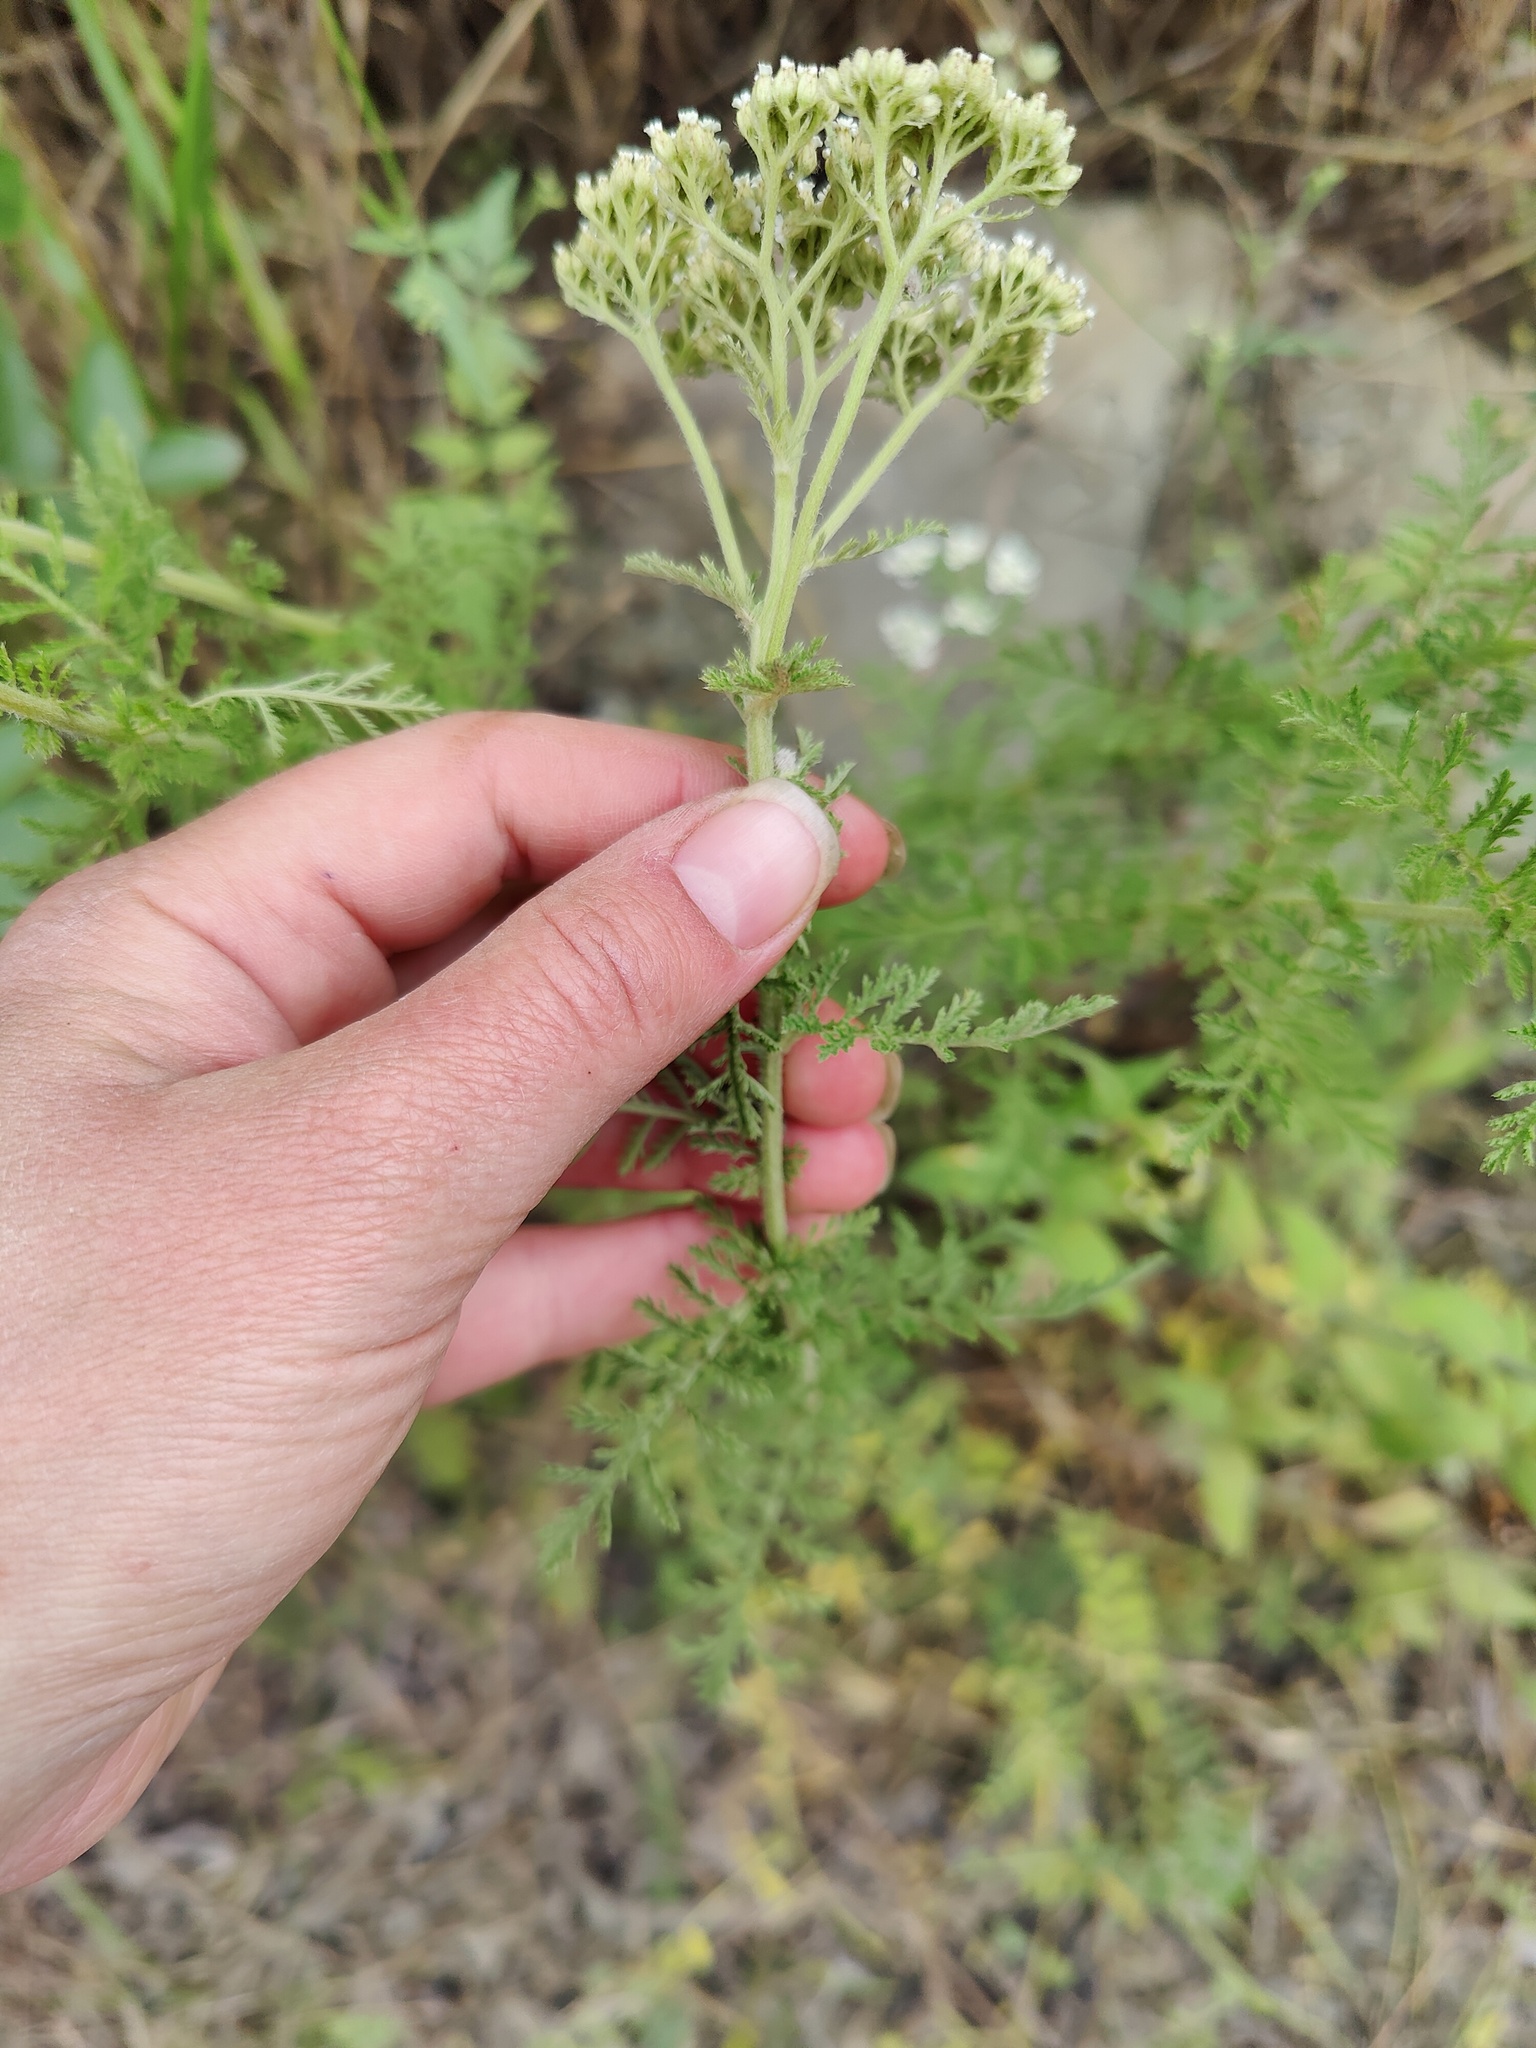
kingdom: Plantae
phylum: Tracheophyta
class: Magnoliopsida
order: Asterales
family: Asteraceae
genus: Achillea
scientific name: Achillea nobilis
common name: Noble yarrow
